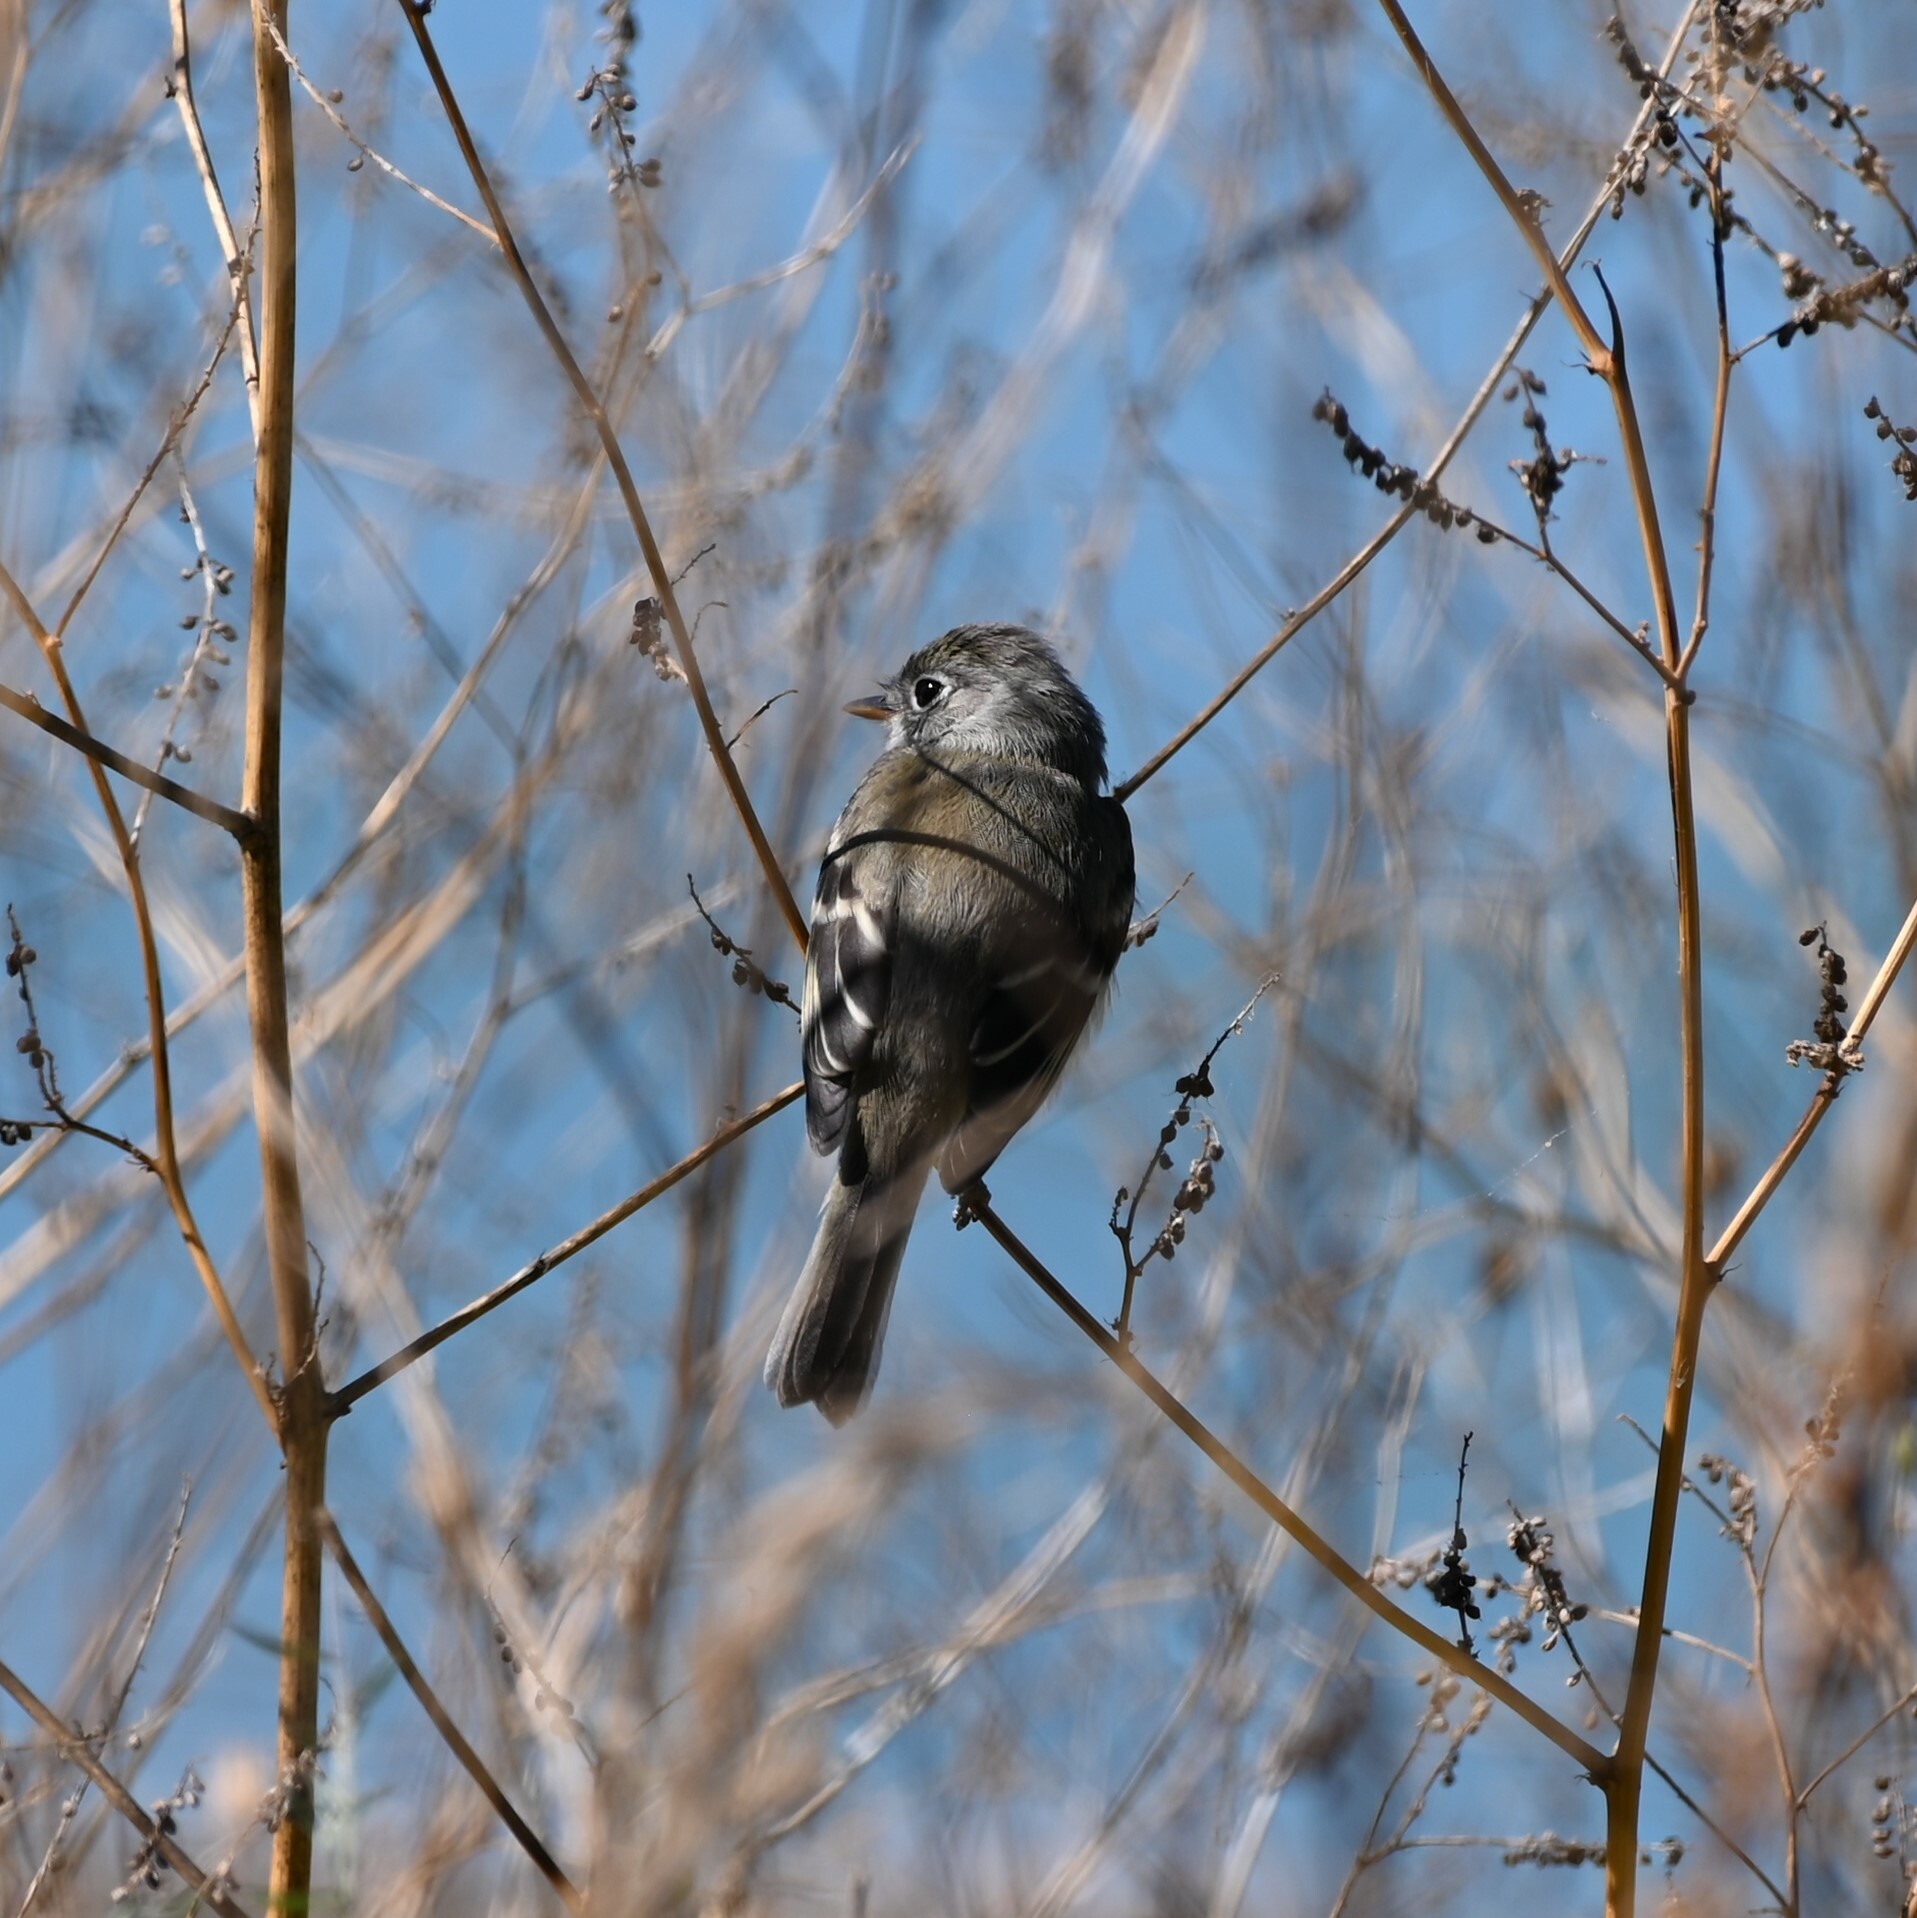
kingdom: Animalia
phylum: Chordata
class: Aves
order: Passeriformes
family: Tyrannidae
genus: Empidonax
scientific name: Empidonax minimus
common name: Least flycatcher
